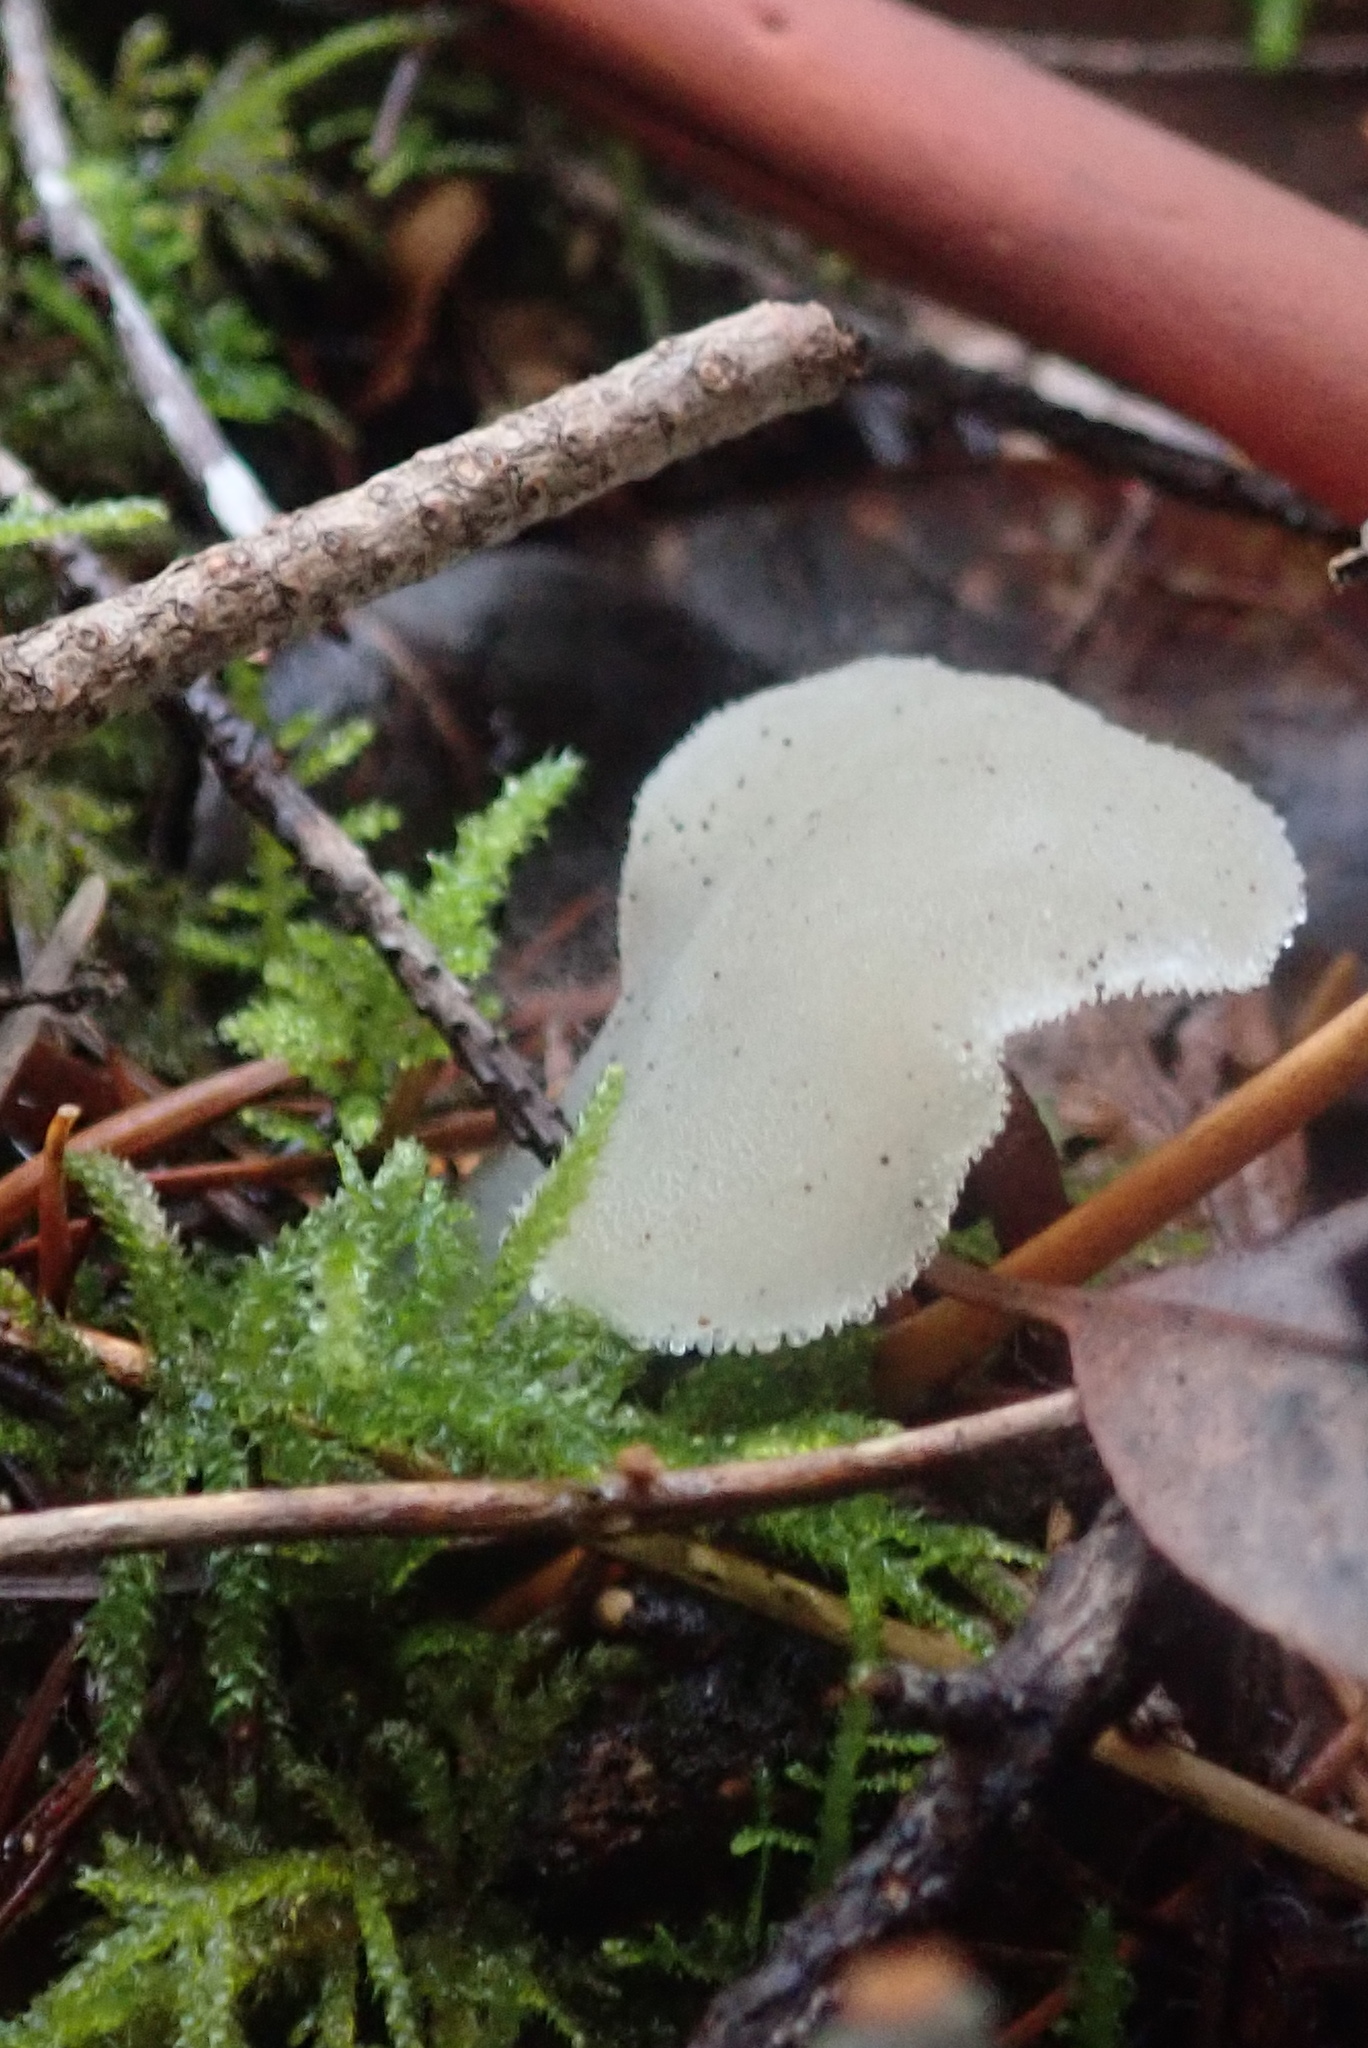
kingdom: Fungi
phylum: Basidiomycota
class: Agaricomycetes
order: Auriculariales
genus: Pseudohydnum
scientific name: Pseudohydnum gelatinosum
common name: Jelly tongue
